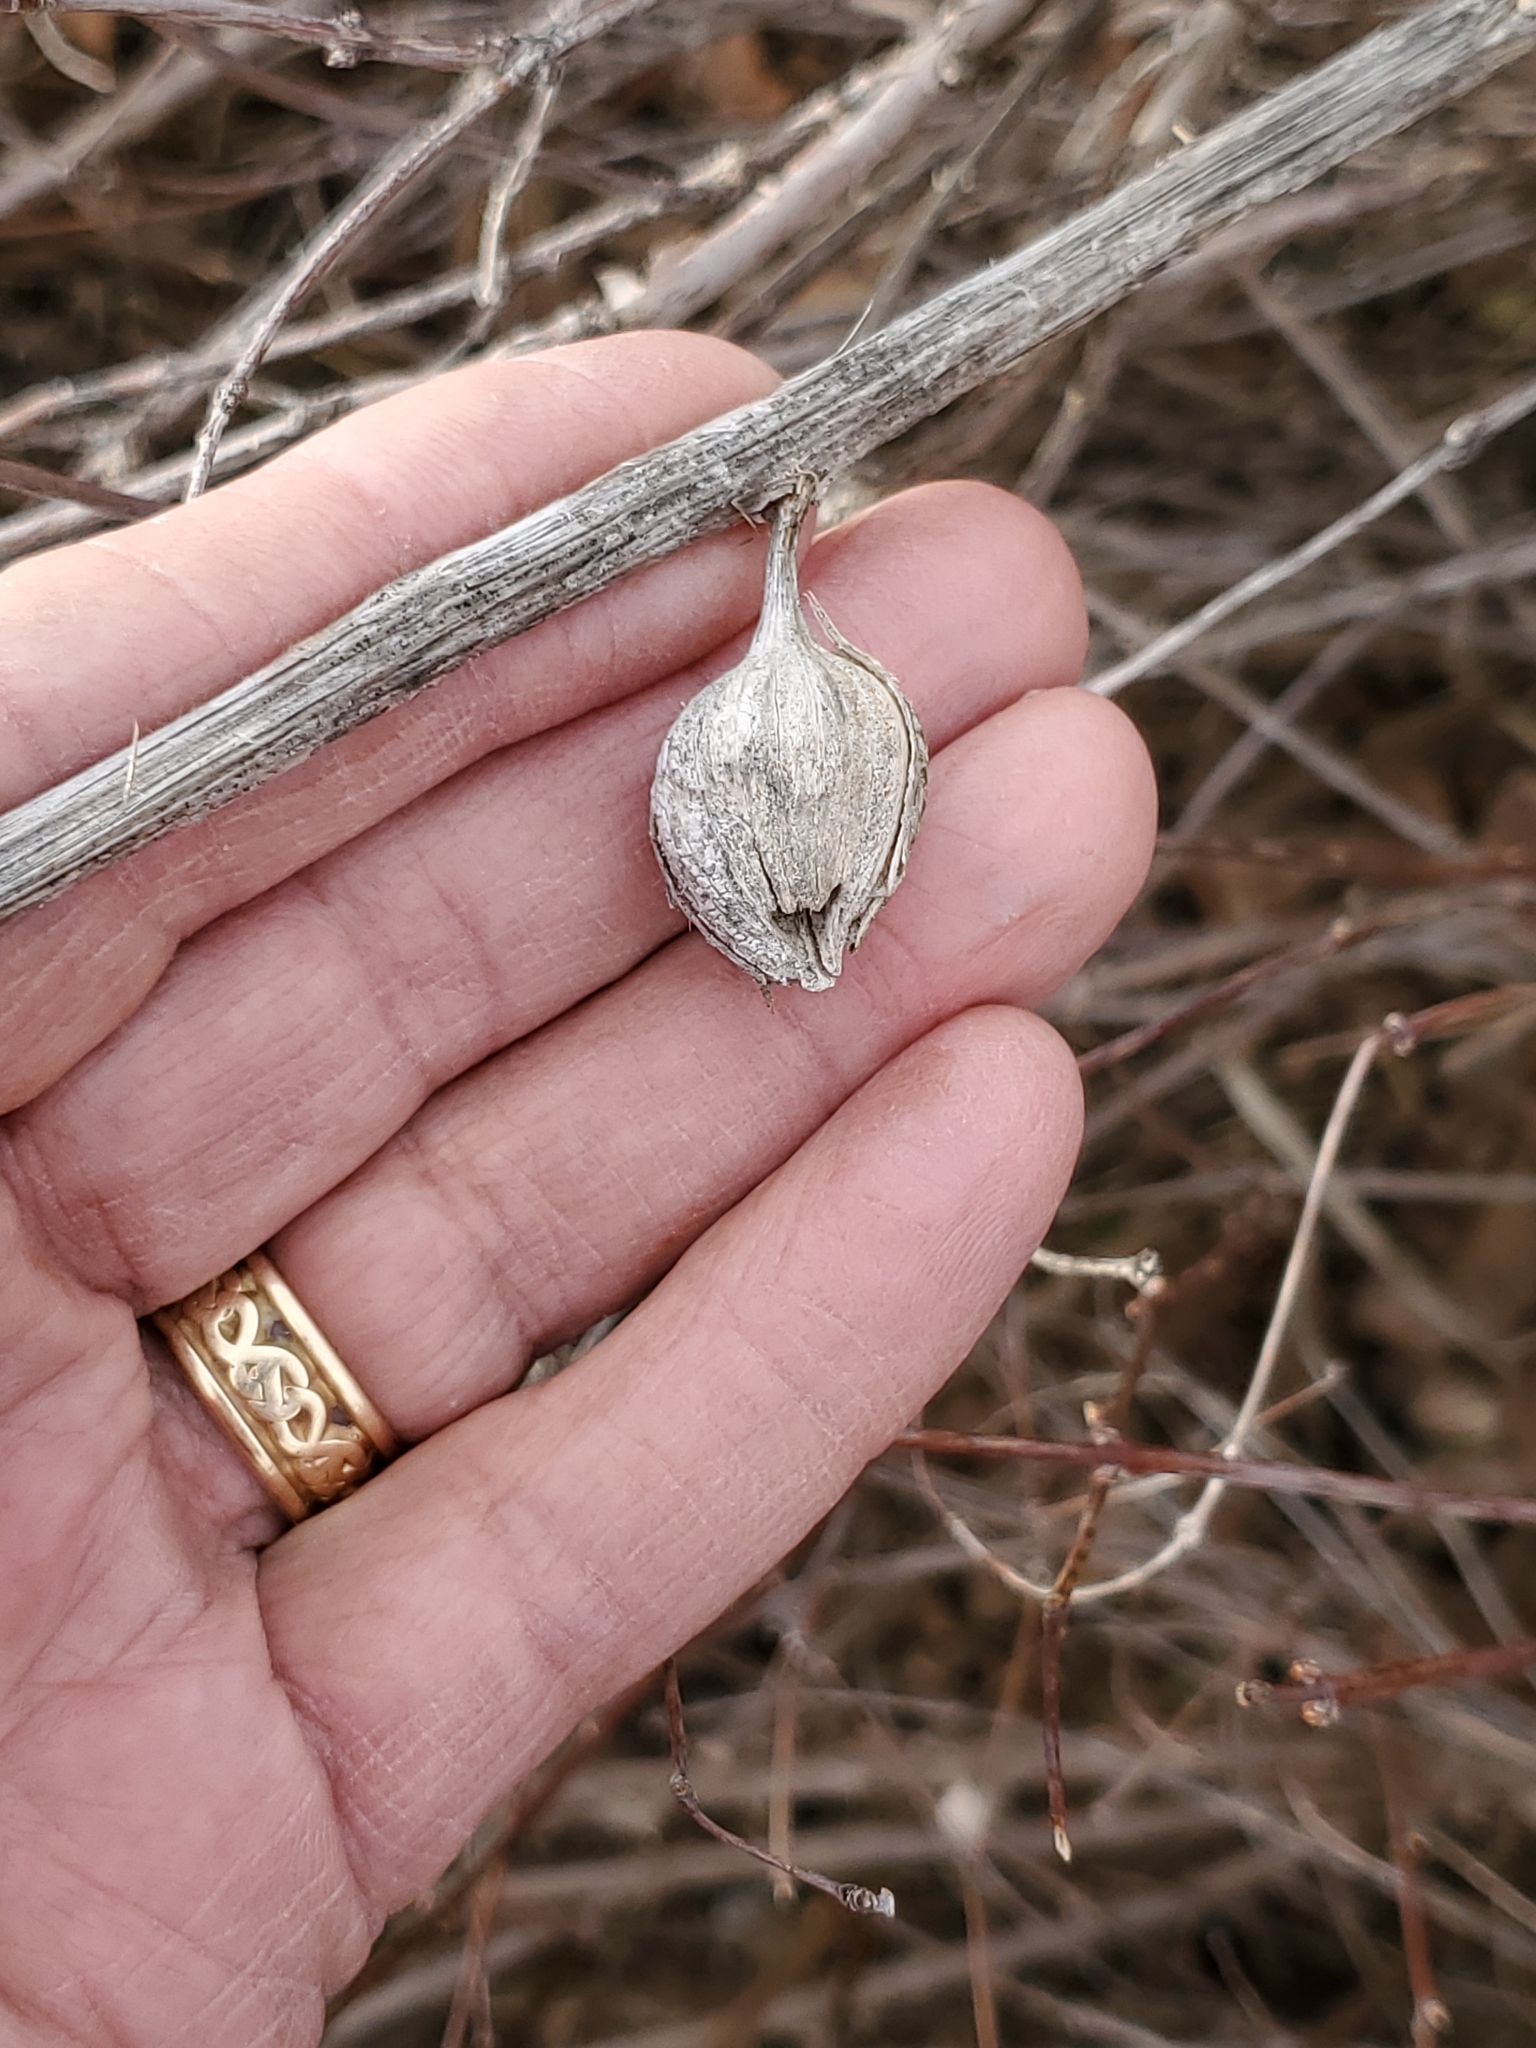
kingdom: Animalia
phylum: Arthropoda
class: Insecta
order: Diptera
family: Tephritidae
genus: Urophora
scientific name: Urophora cardui
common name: Fruit fly
